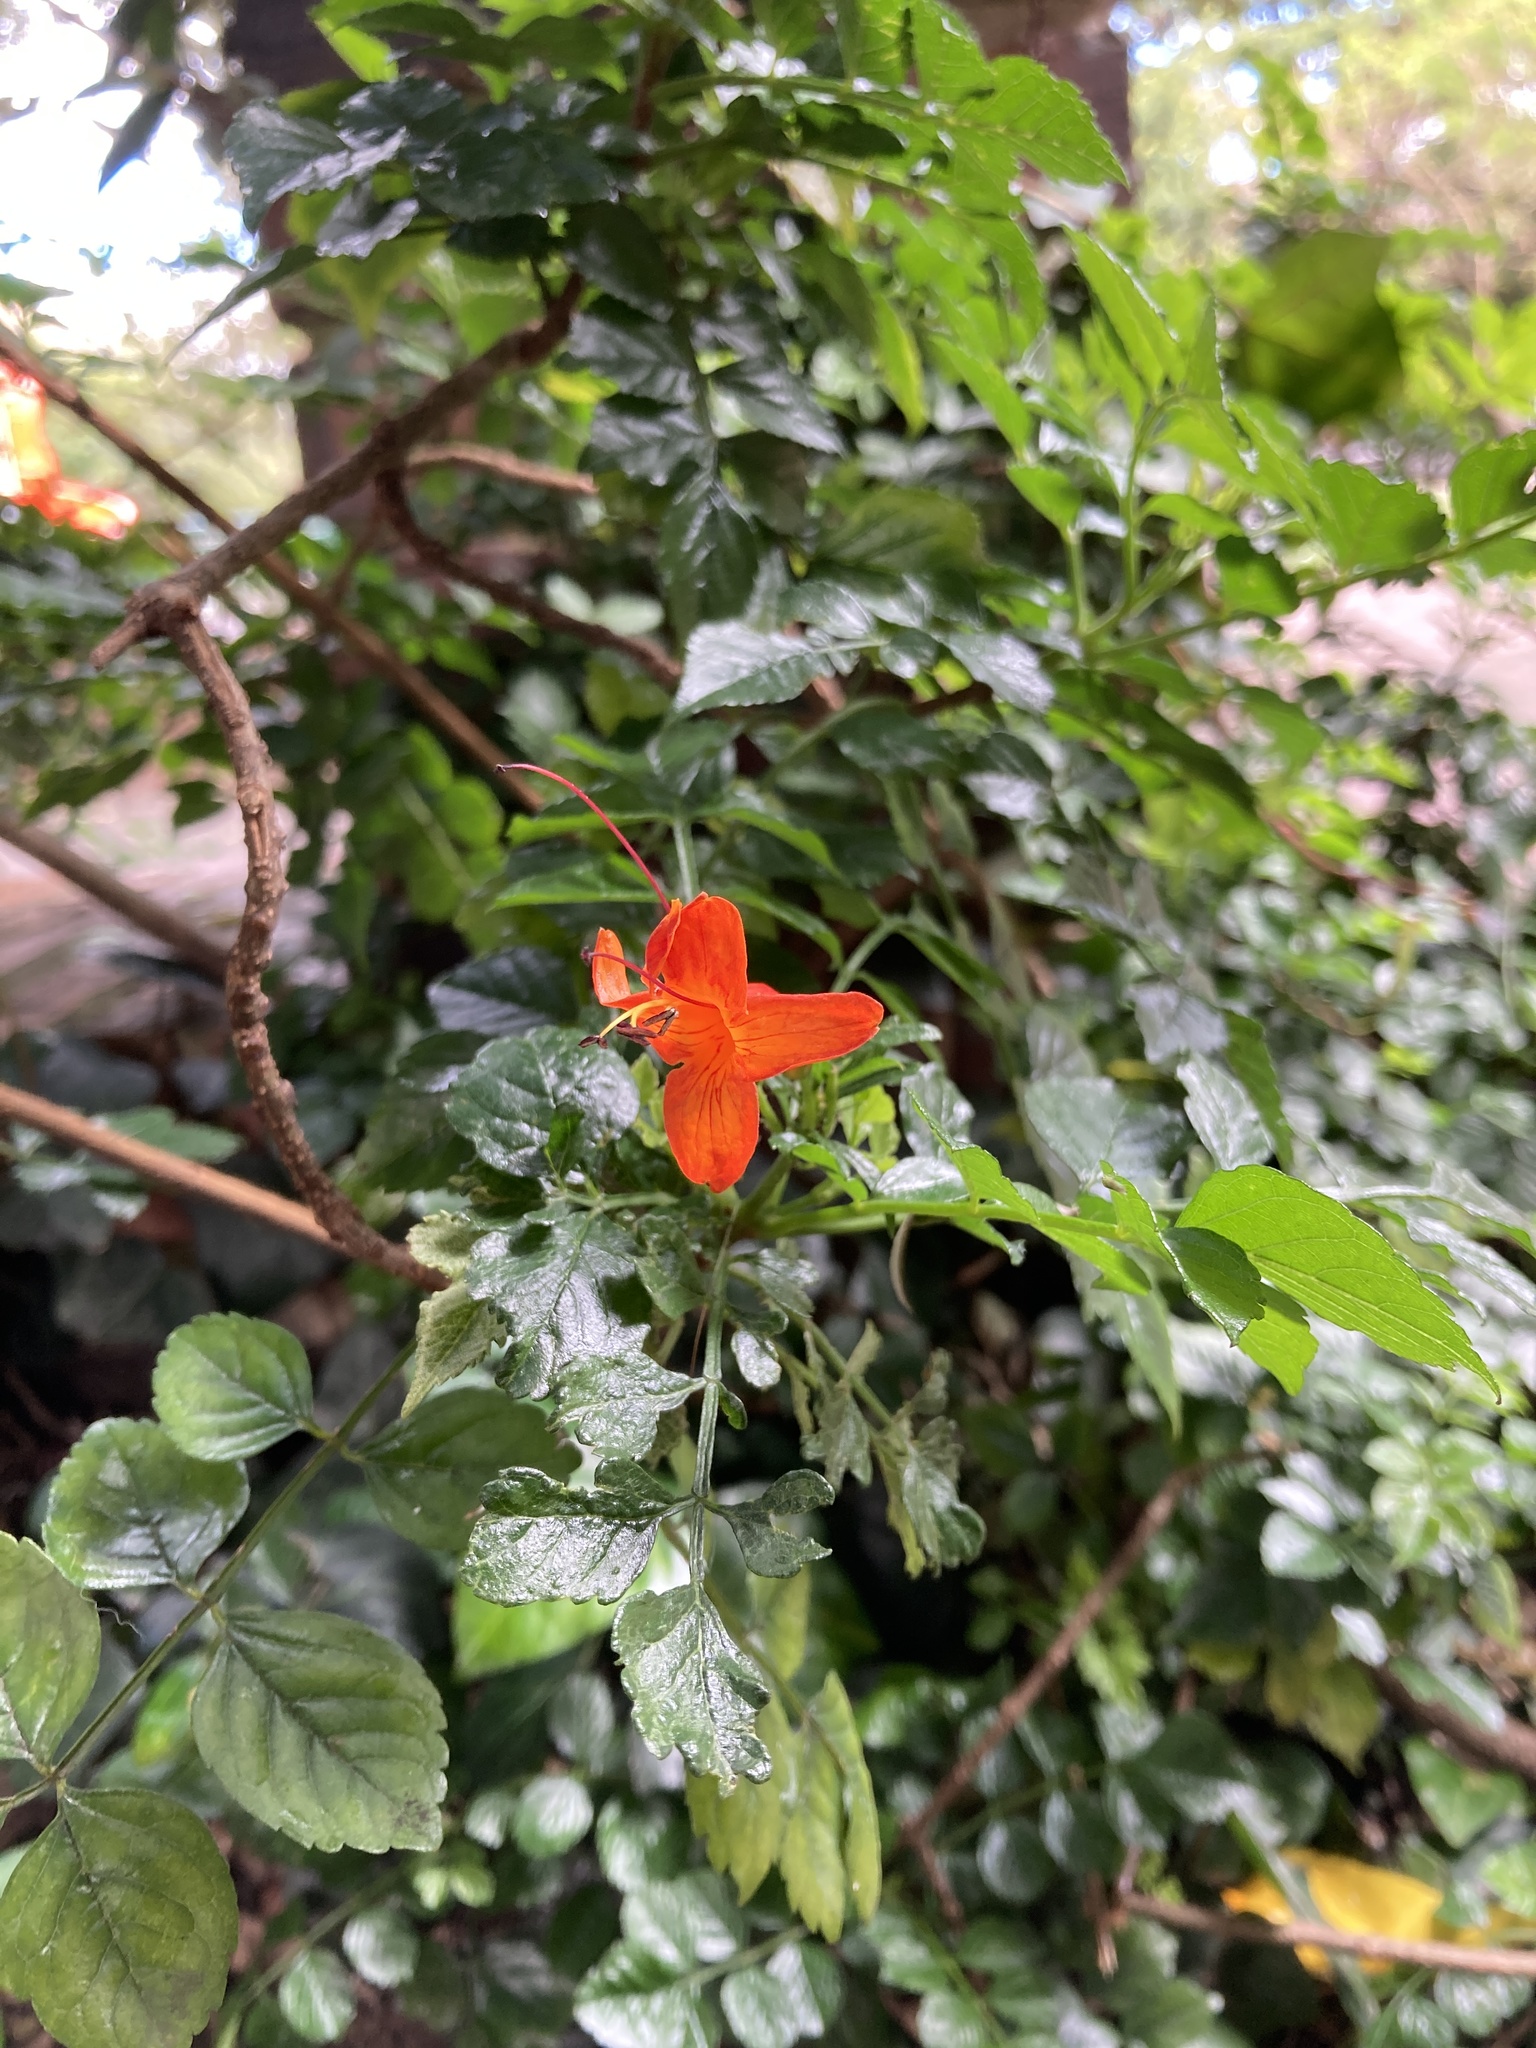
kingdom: Plantae
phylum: Tracheophyta
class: Magnoliopsida
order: Lamiales
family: Bignoniaceae
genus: Tecomaria
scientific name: Tecomaria capensis
